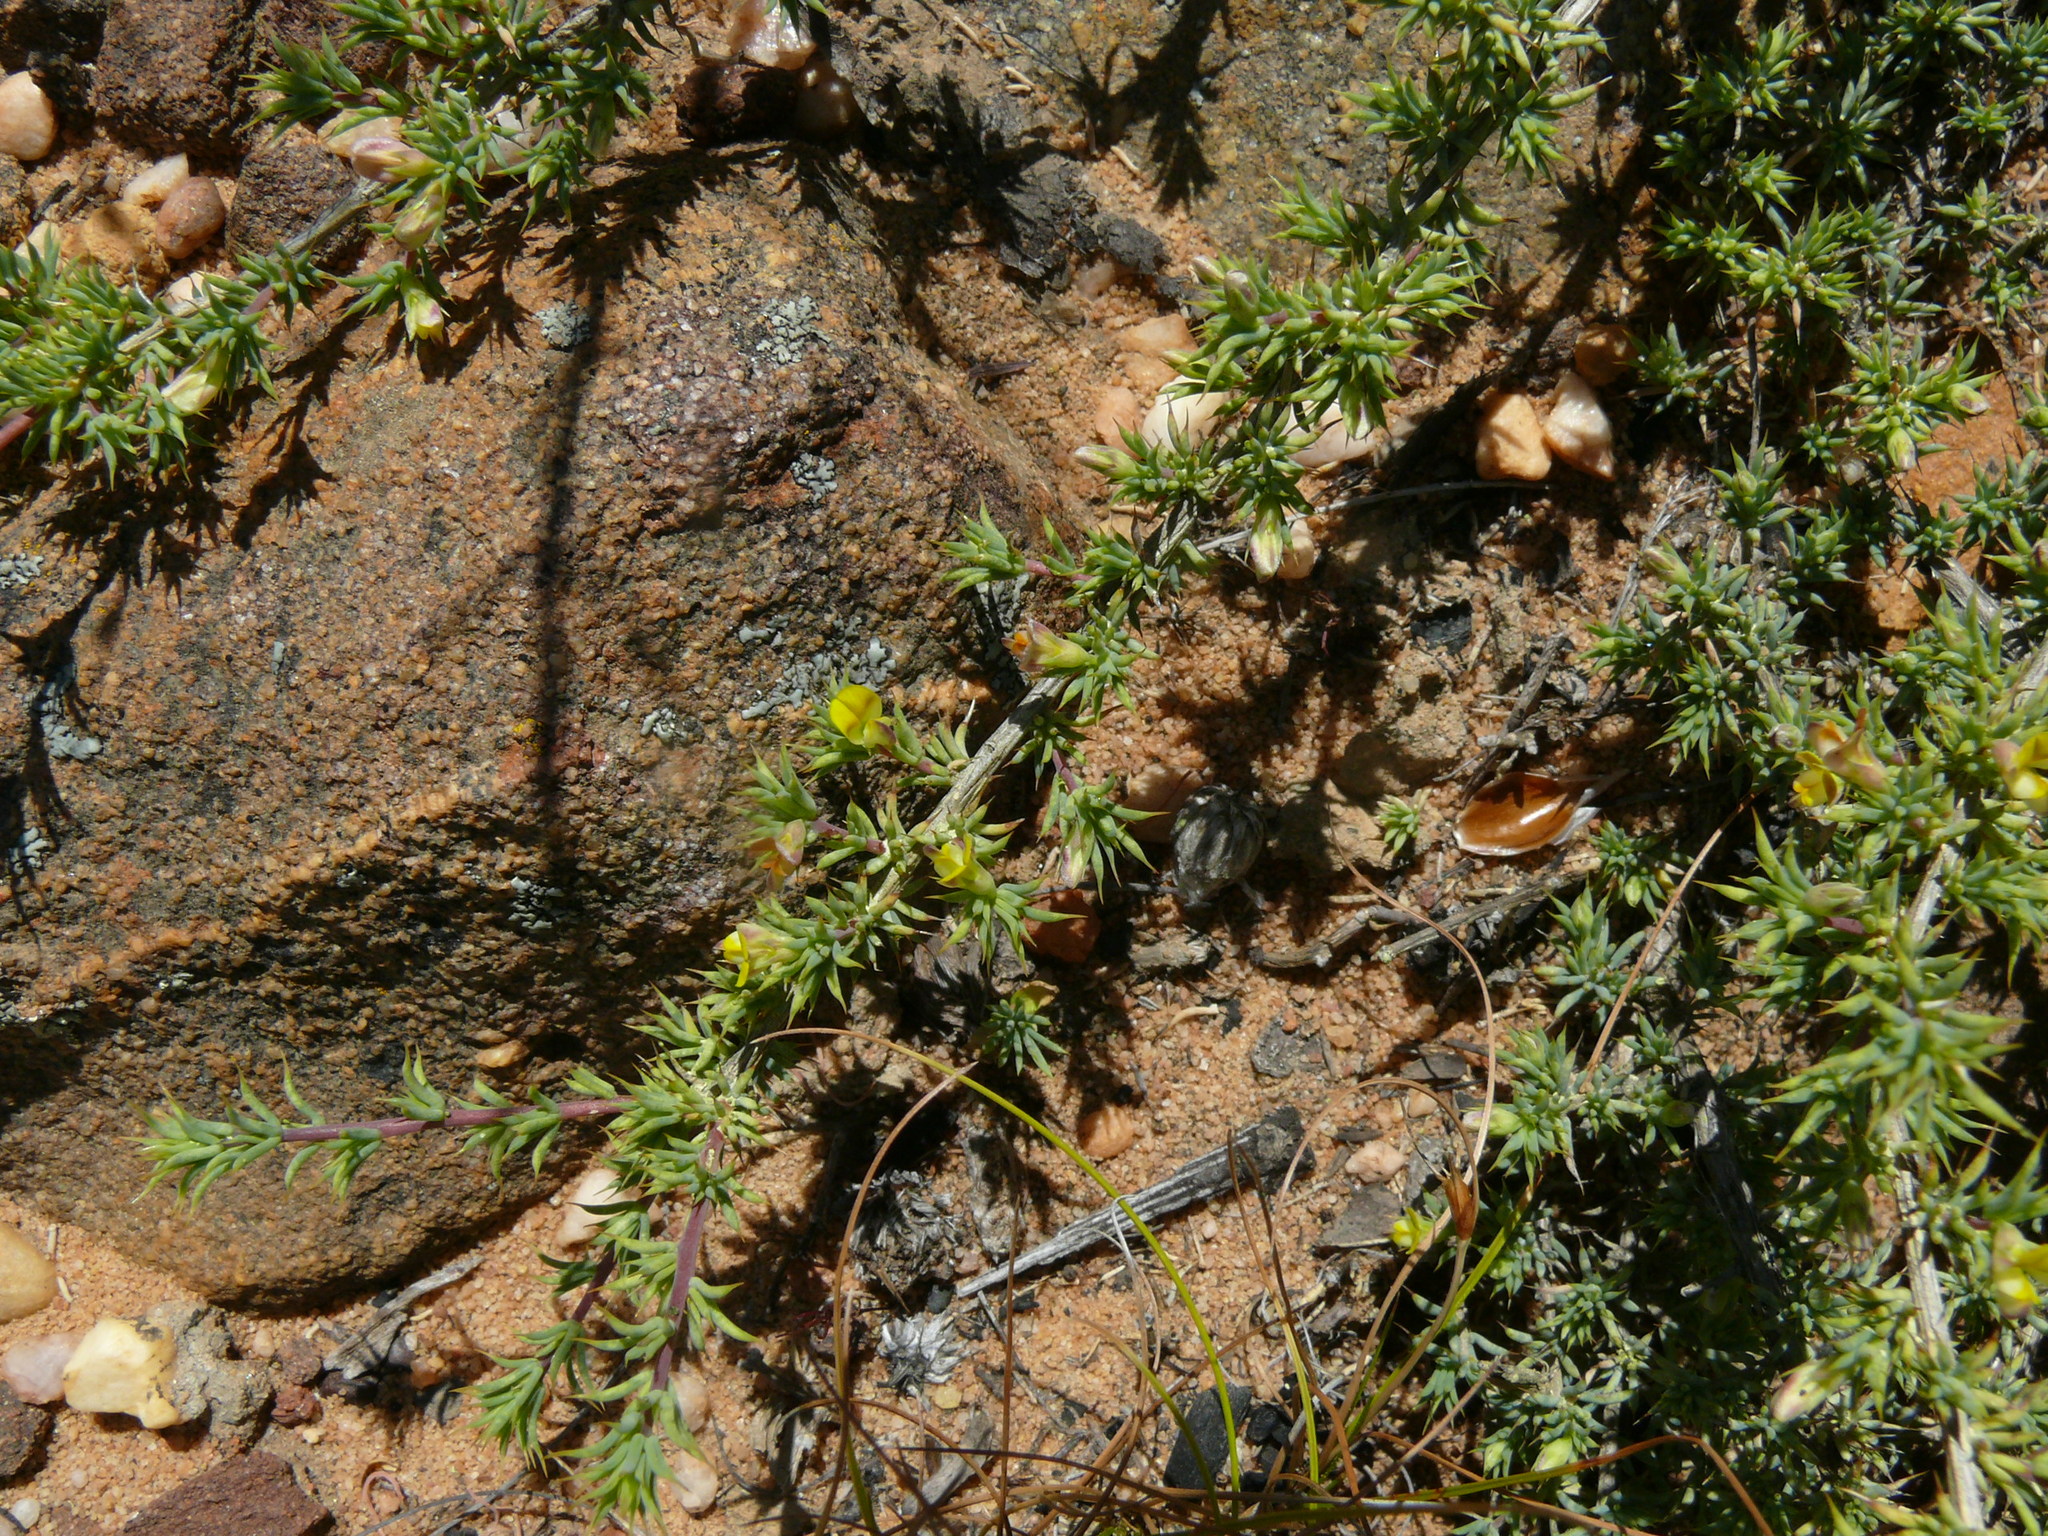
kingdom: Plantae
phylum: Tracheophyta
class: Magnoliopsida
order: Fabales
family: Fabaceae
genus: Aspalathus
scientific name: Aspalathus aristata
